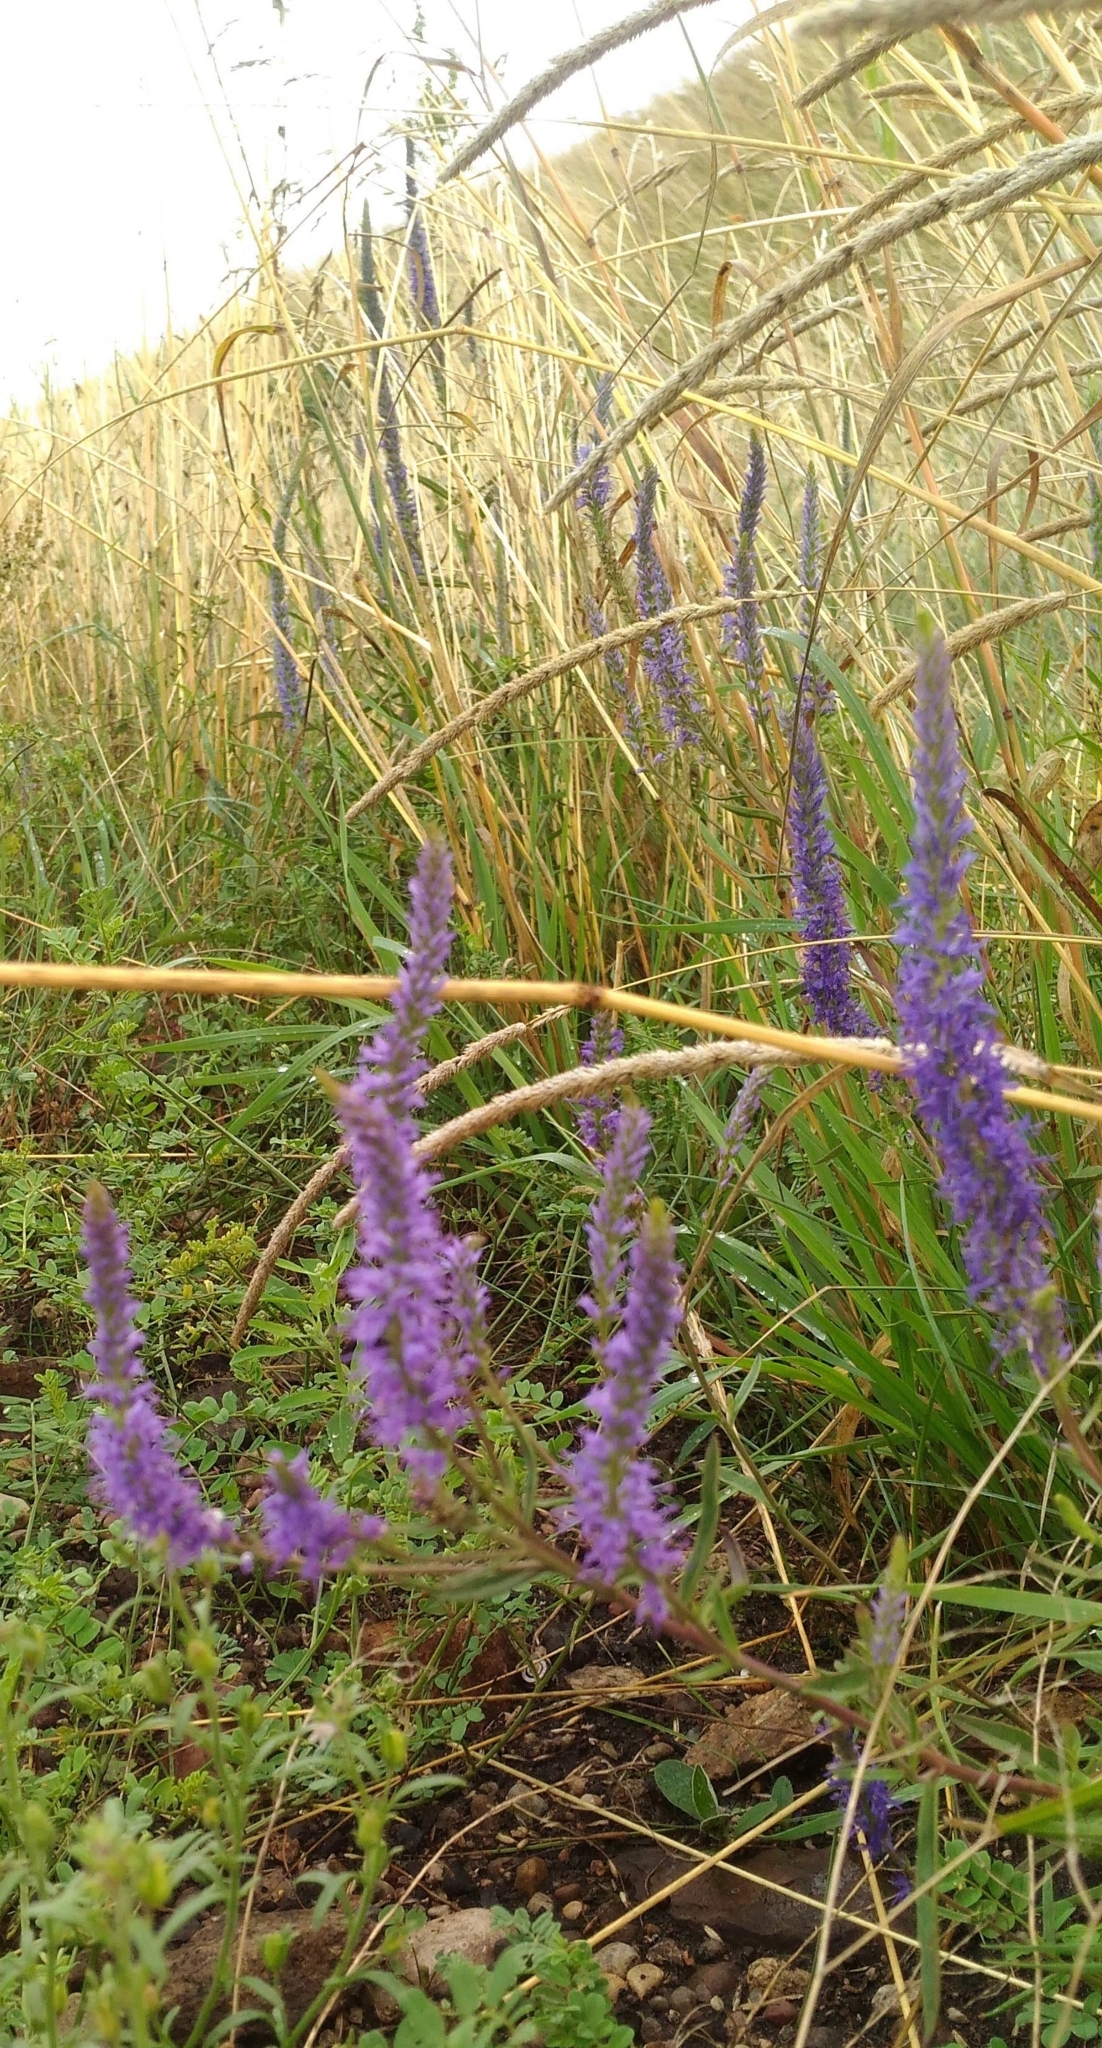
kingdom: Plantae
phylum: Tracheophyta
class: Magnoliopsida
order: Lamiales
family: Plantaginaceae
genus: Veronica
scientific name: Veronica spicata
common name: Spiked speedwell
